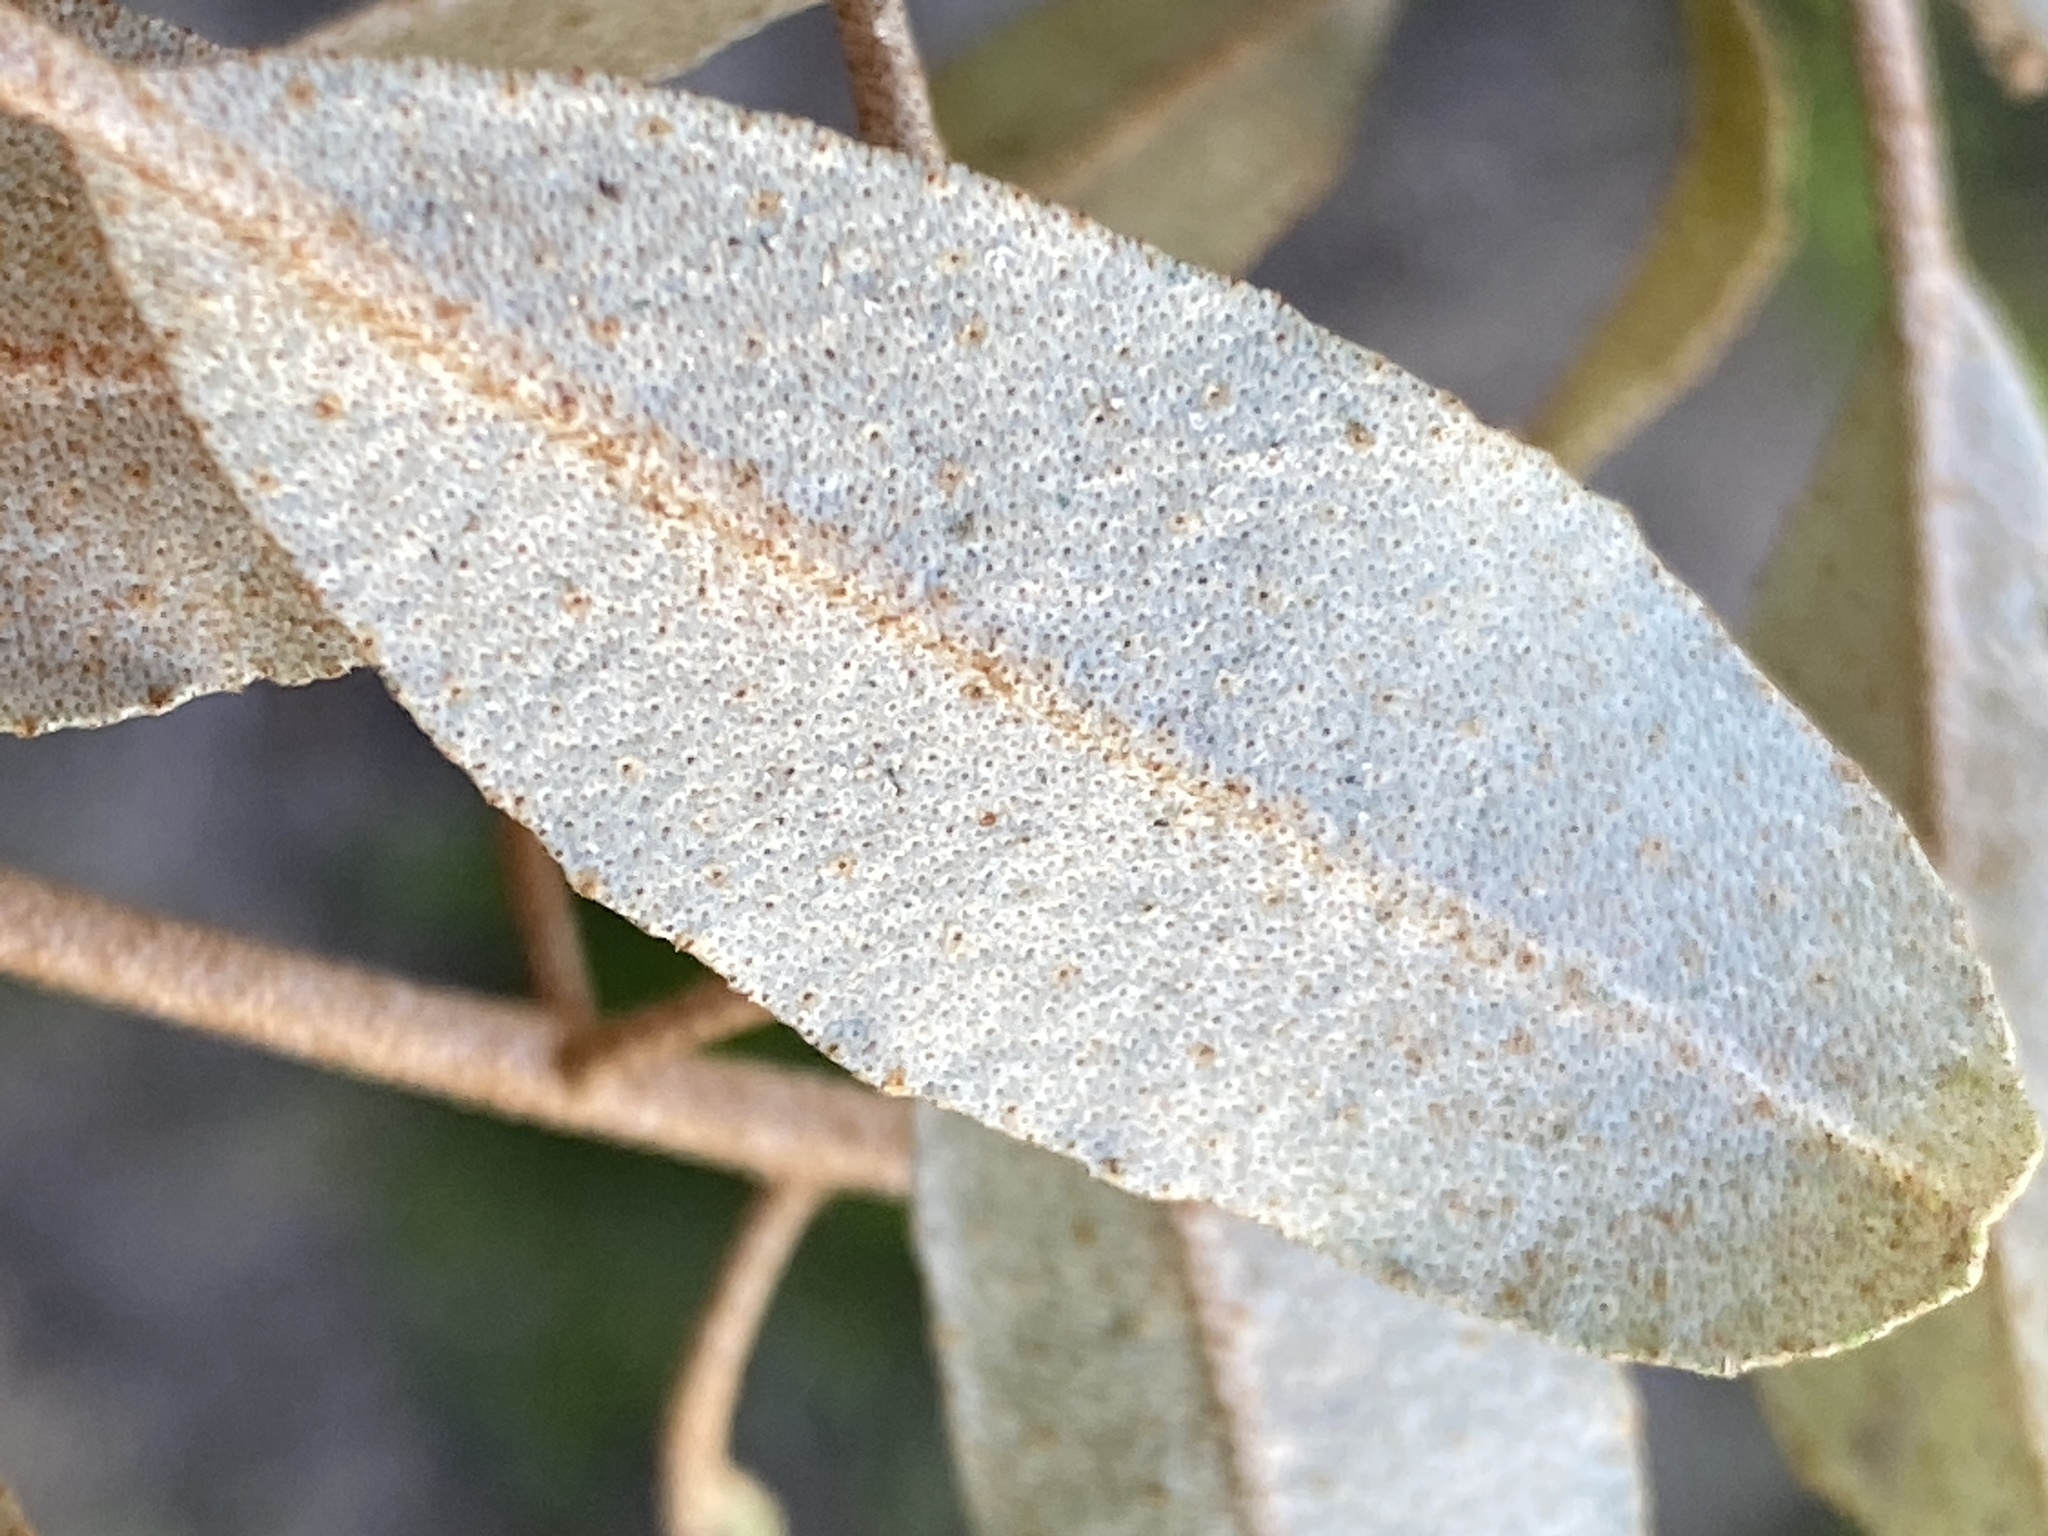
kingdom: Plantae
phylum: Tracheophyta
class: Magnoliopsida
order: Malpighiales
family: Euphorbiaceae
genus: Croton
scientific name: Croton argyranthemus
